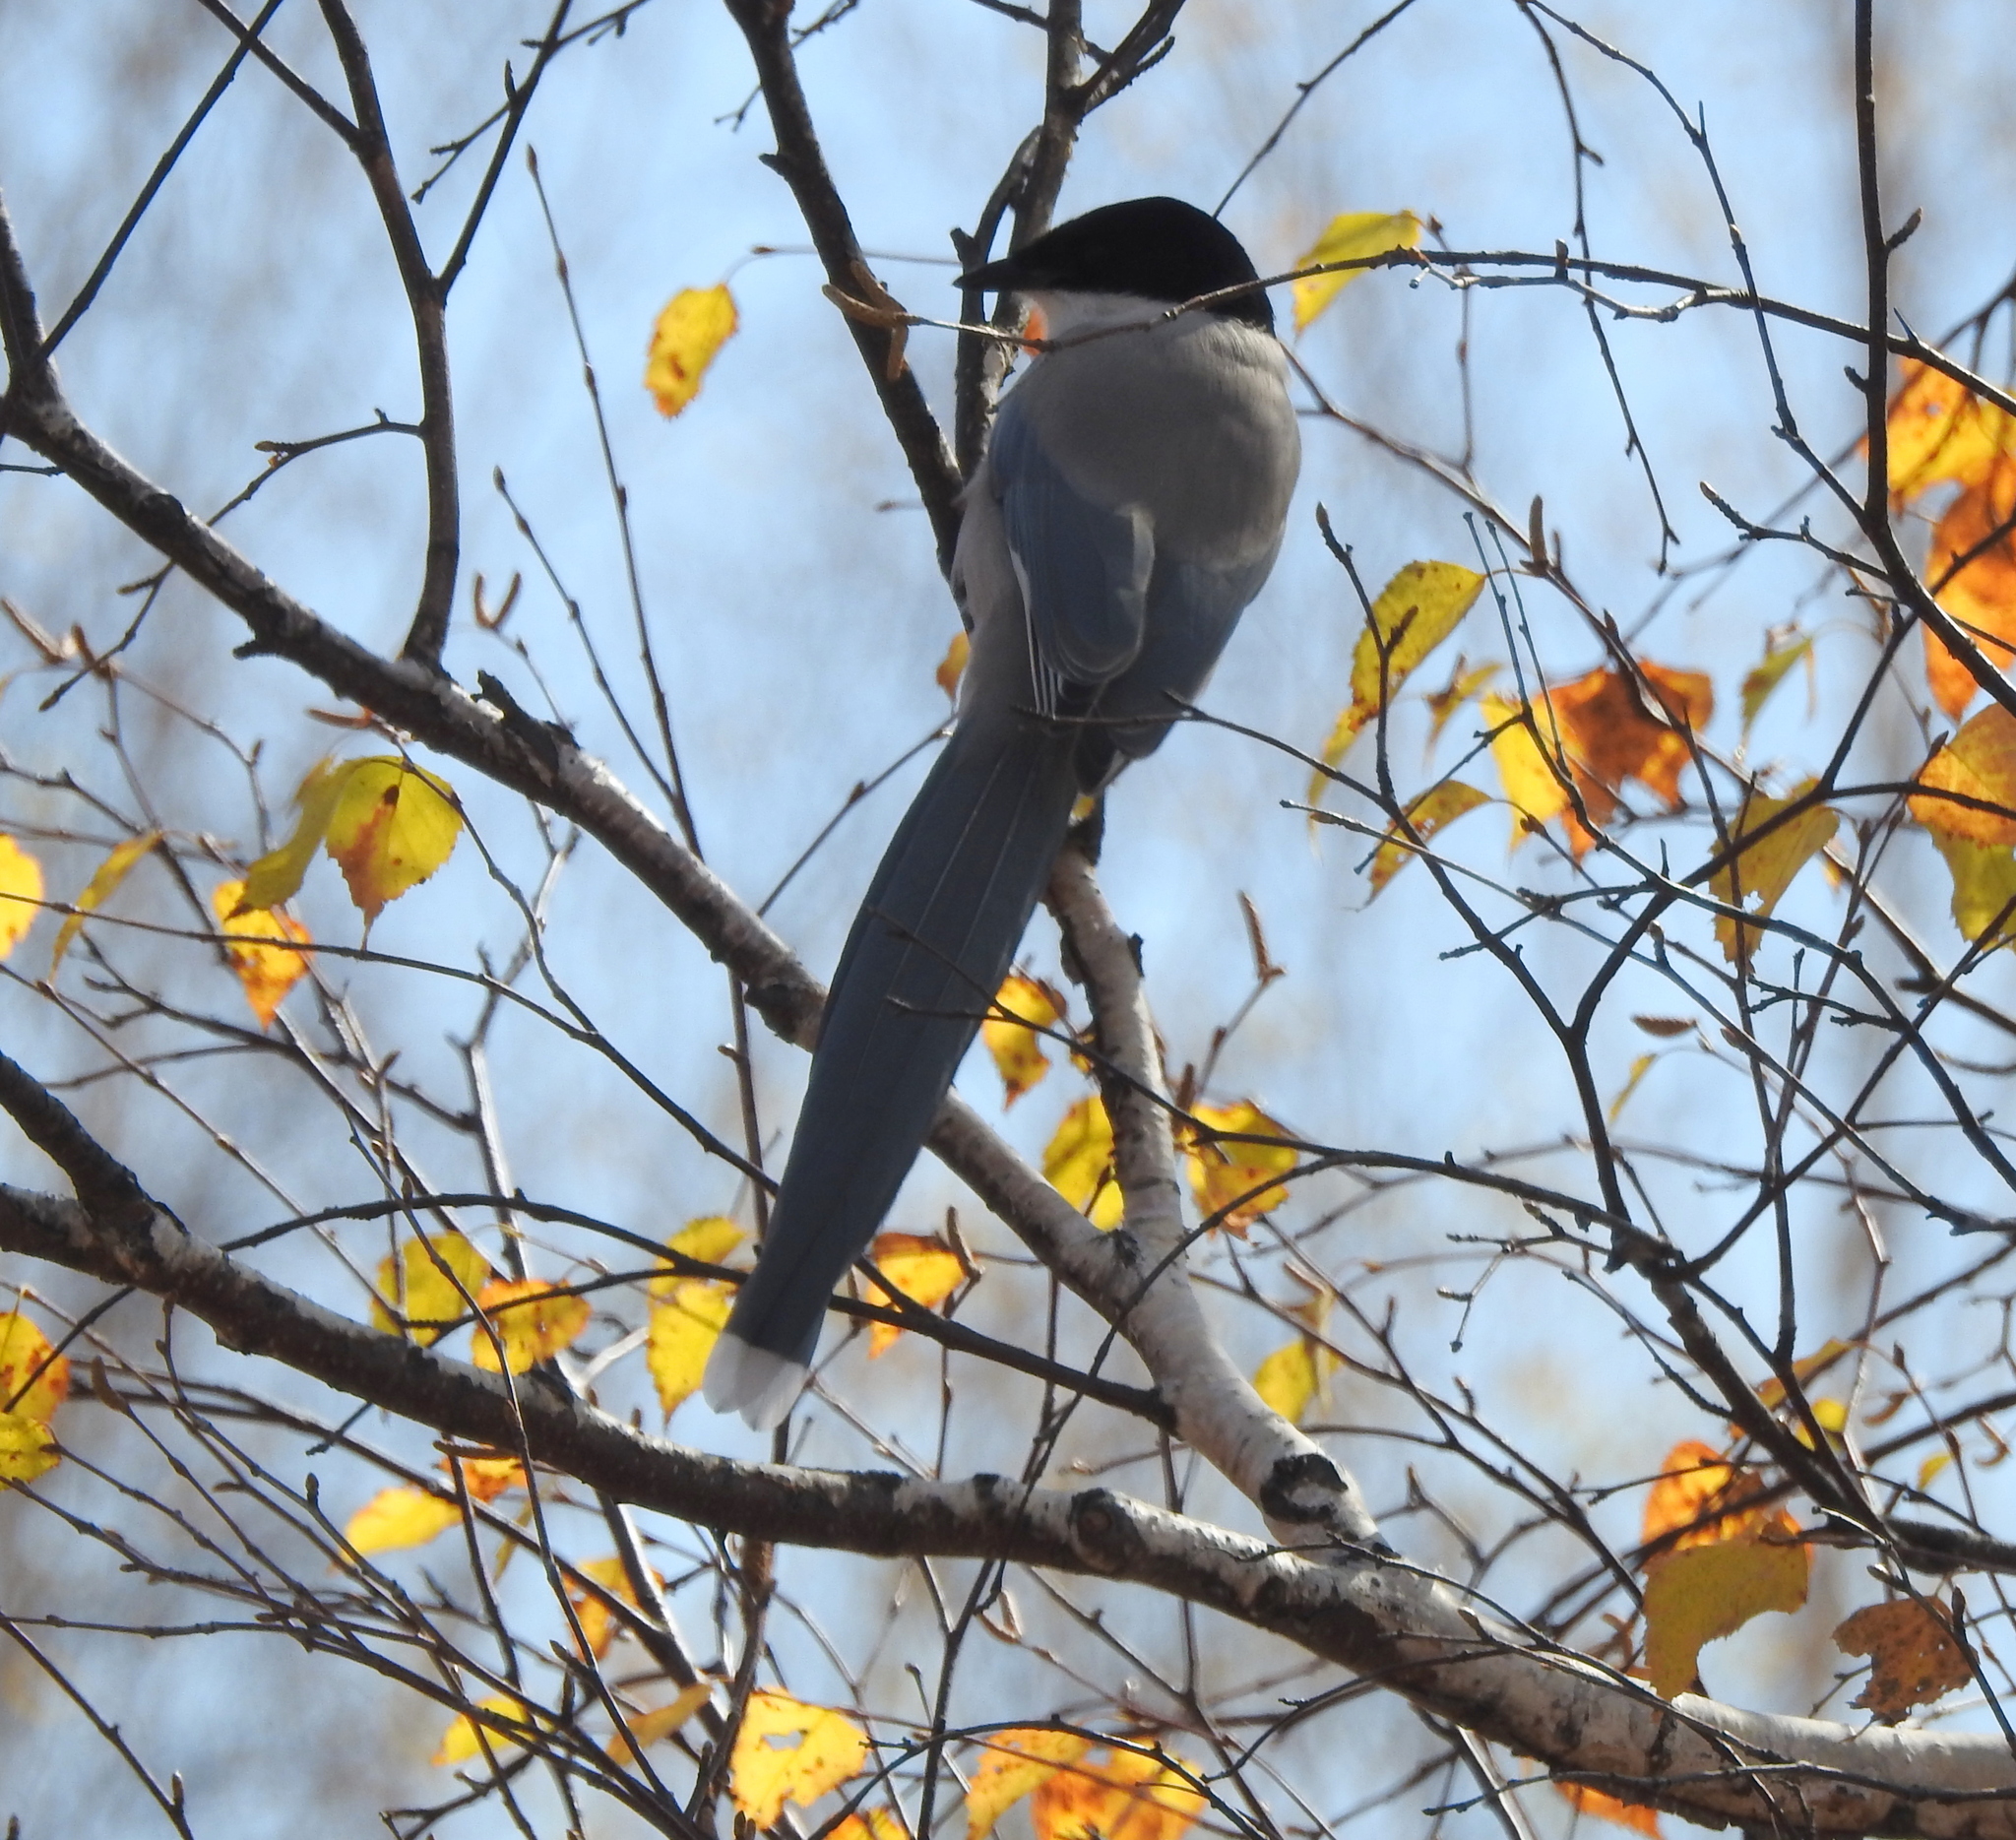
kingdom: Animalia
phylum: Chordata
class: Aves
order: Passeriformes
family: Corvidae
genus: Cyanopica
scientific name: Cyanopica cyanus
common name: Azure-winged magpie
